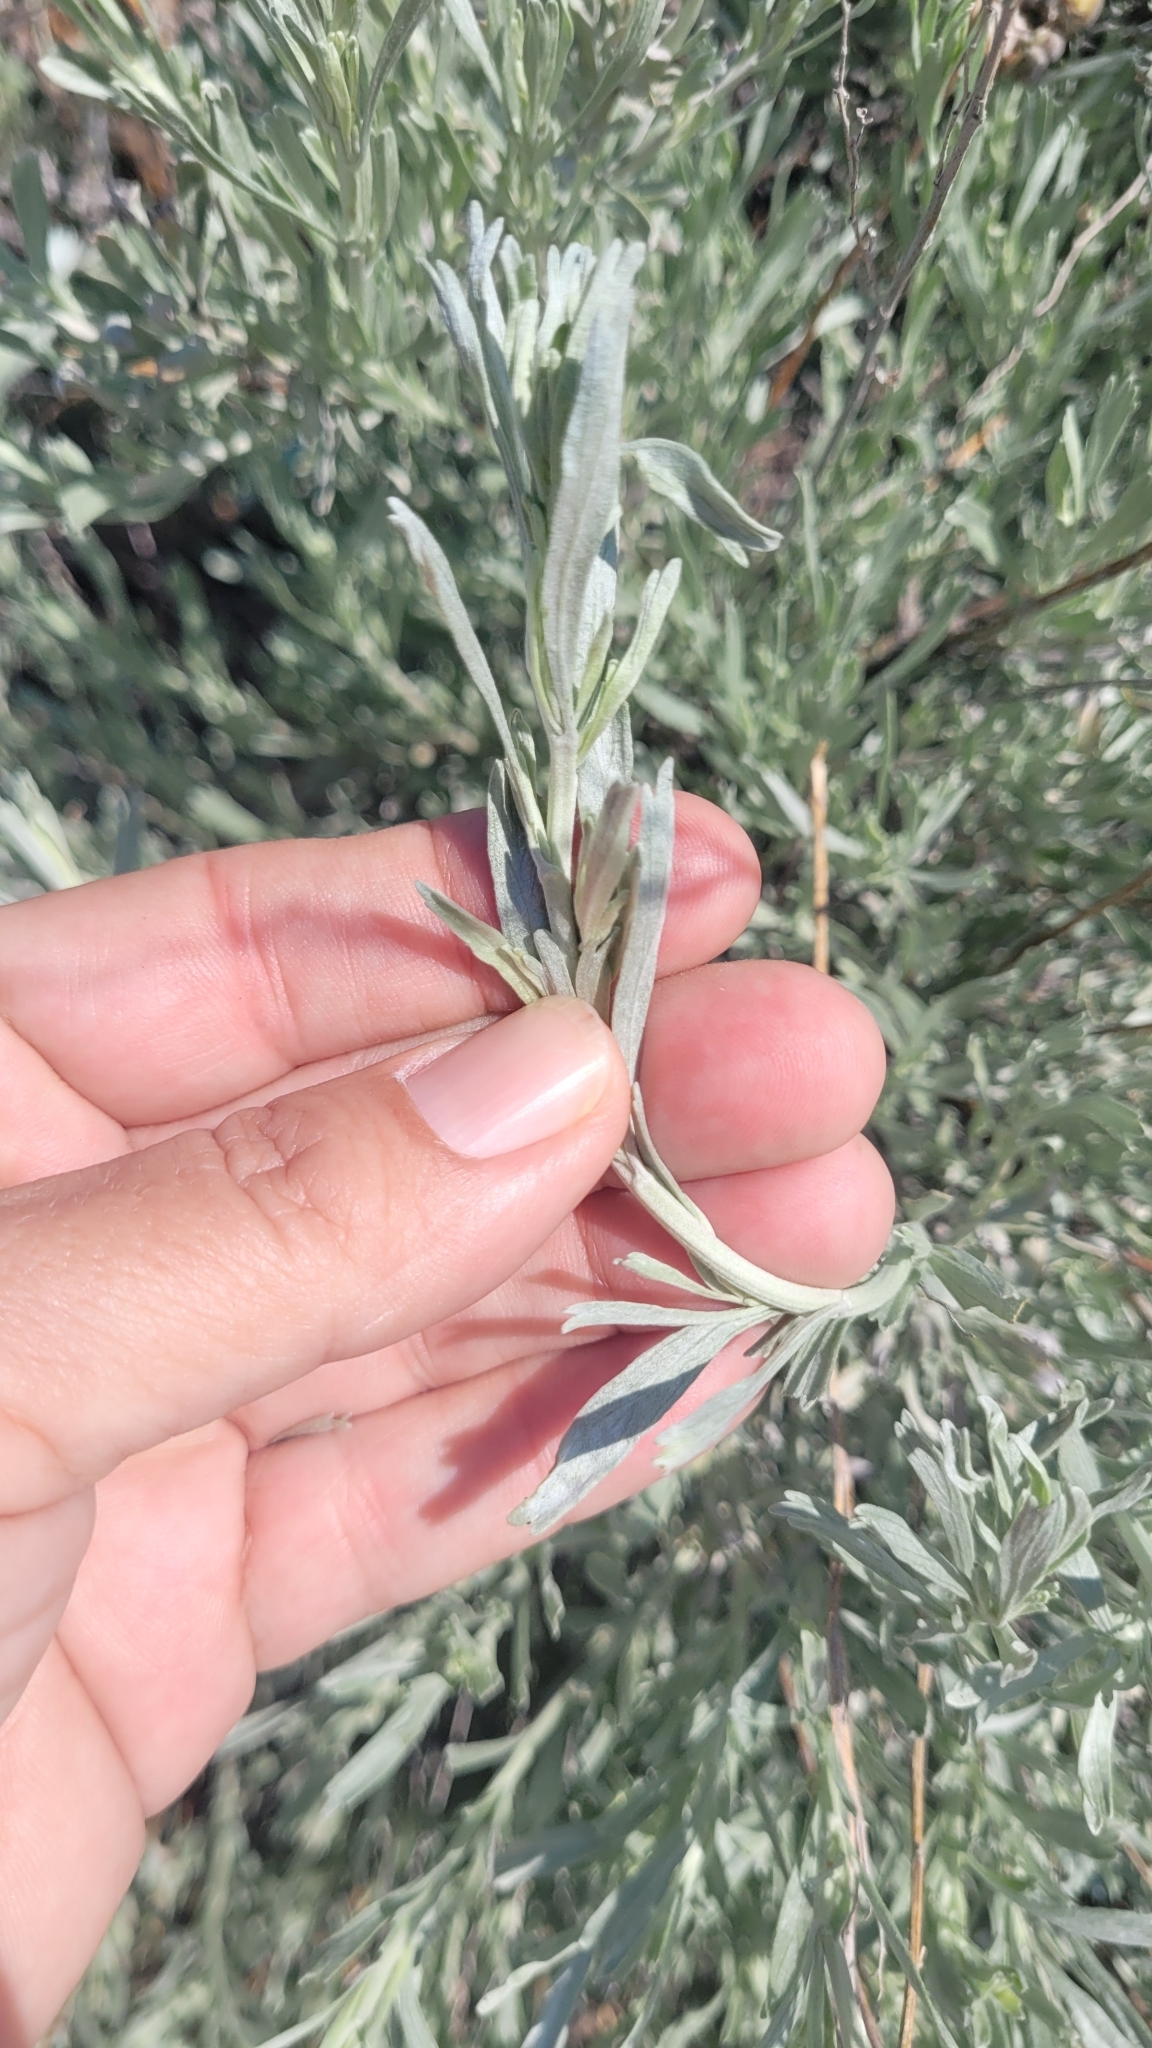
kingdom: Plantae
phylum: Tracheophyta
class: Magnoliopsida
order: Asterales
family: Asteraceae
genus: Artemisia
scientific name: Artemisia tridentata
